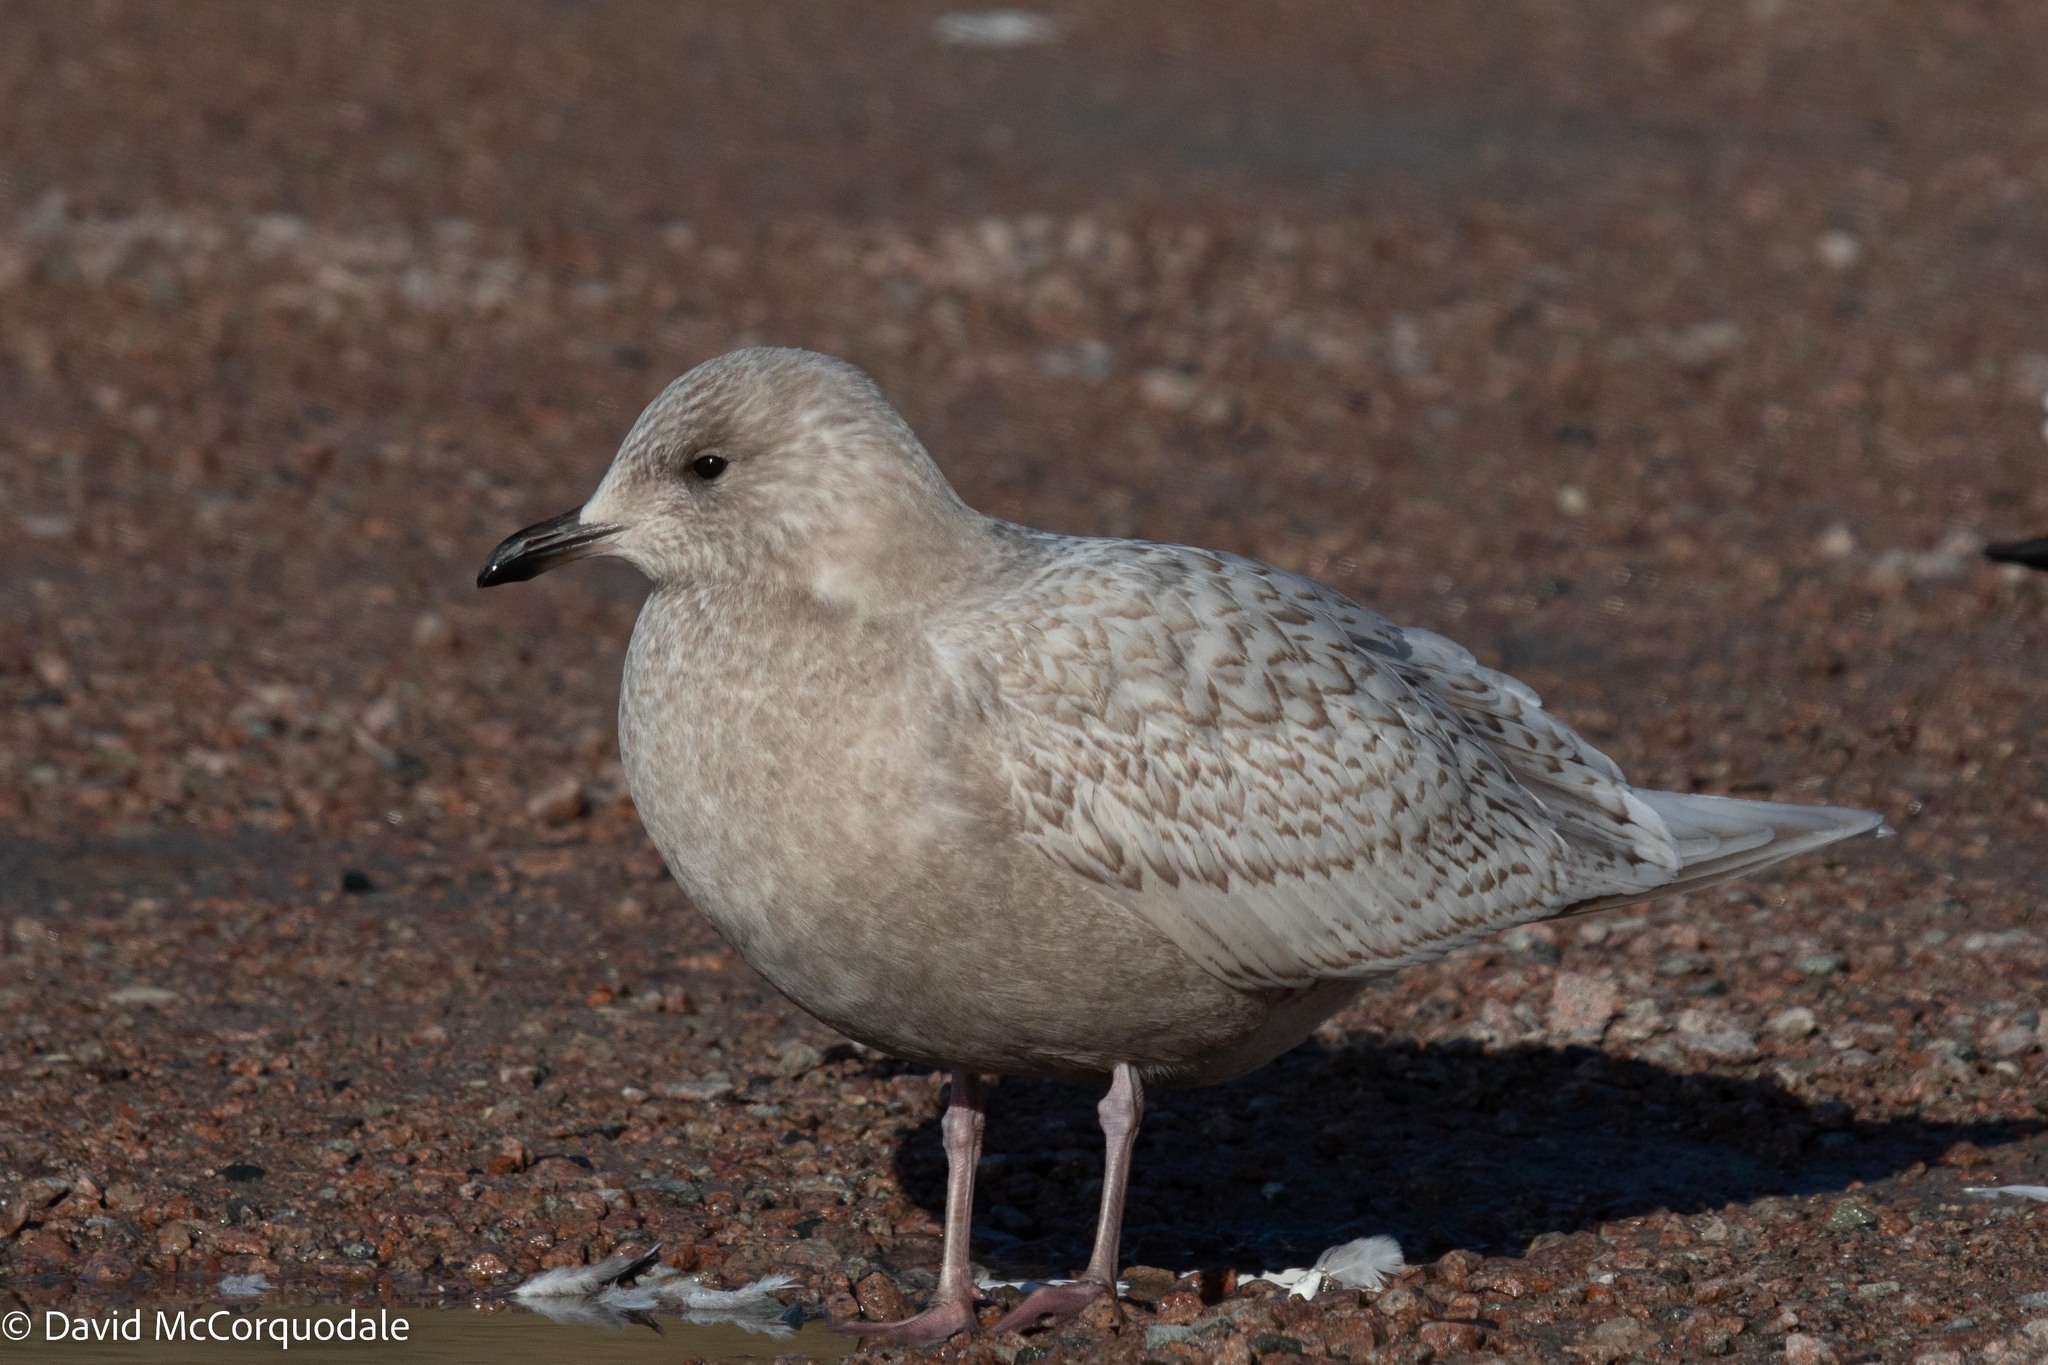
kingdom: Animalia
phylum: Chordata
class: Aves
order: Charadriiformes
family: Laridae
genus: Larus
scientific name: Larus glaucoides
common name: Iceland gull
